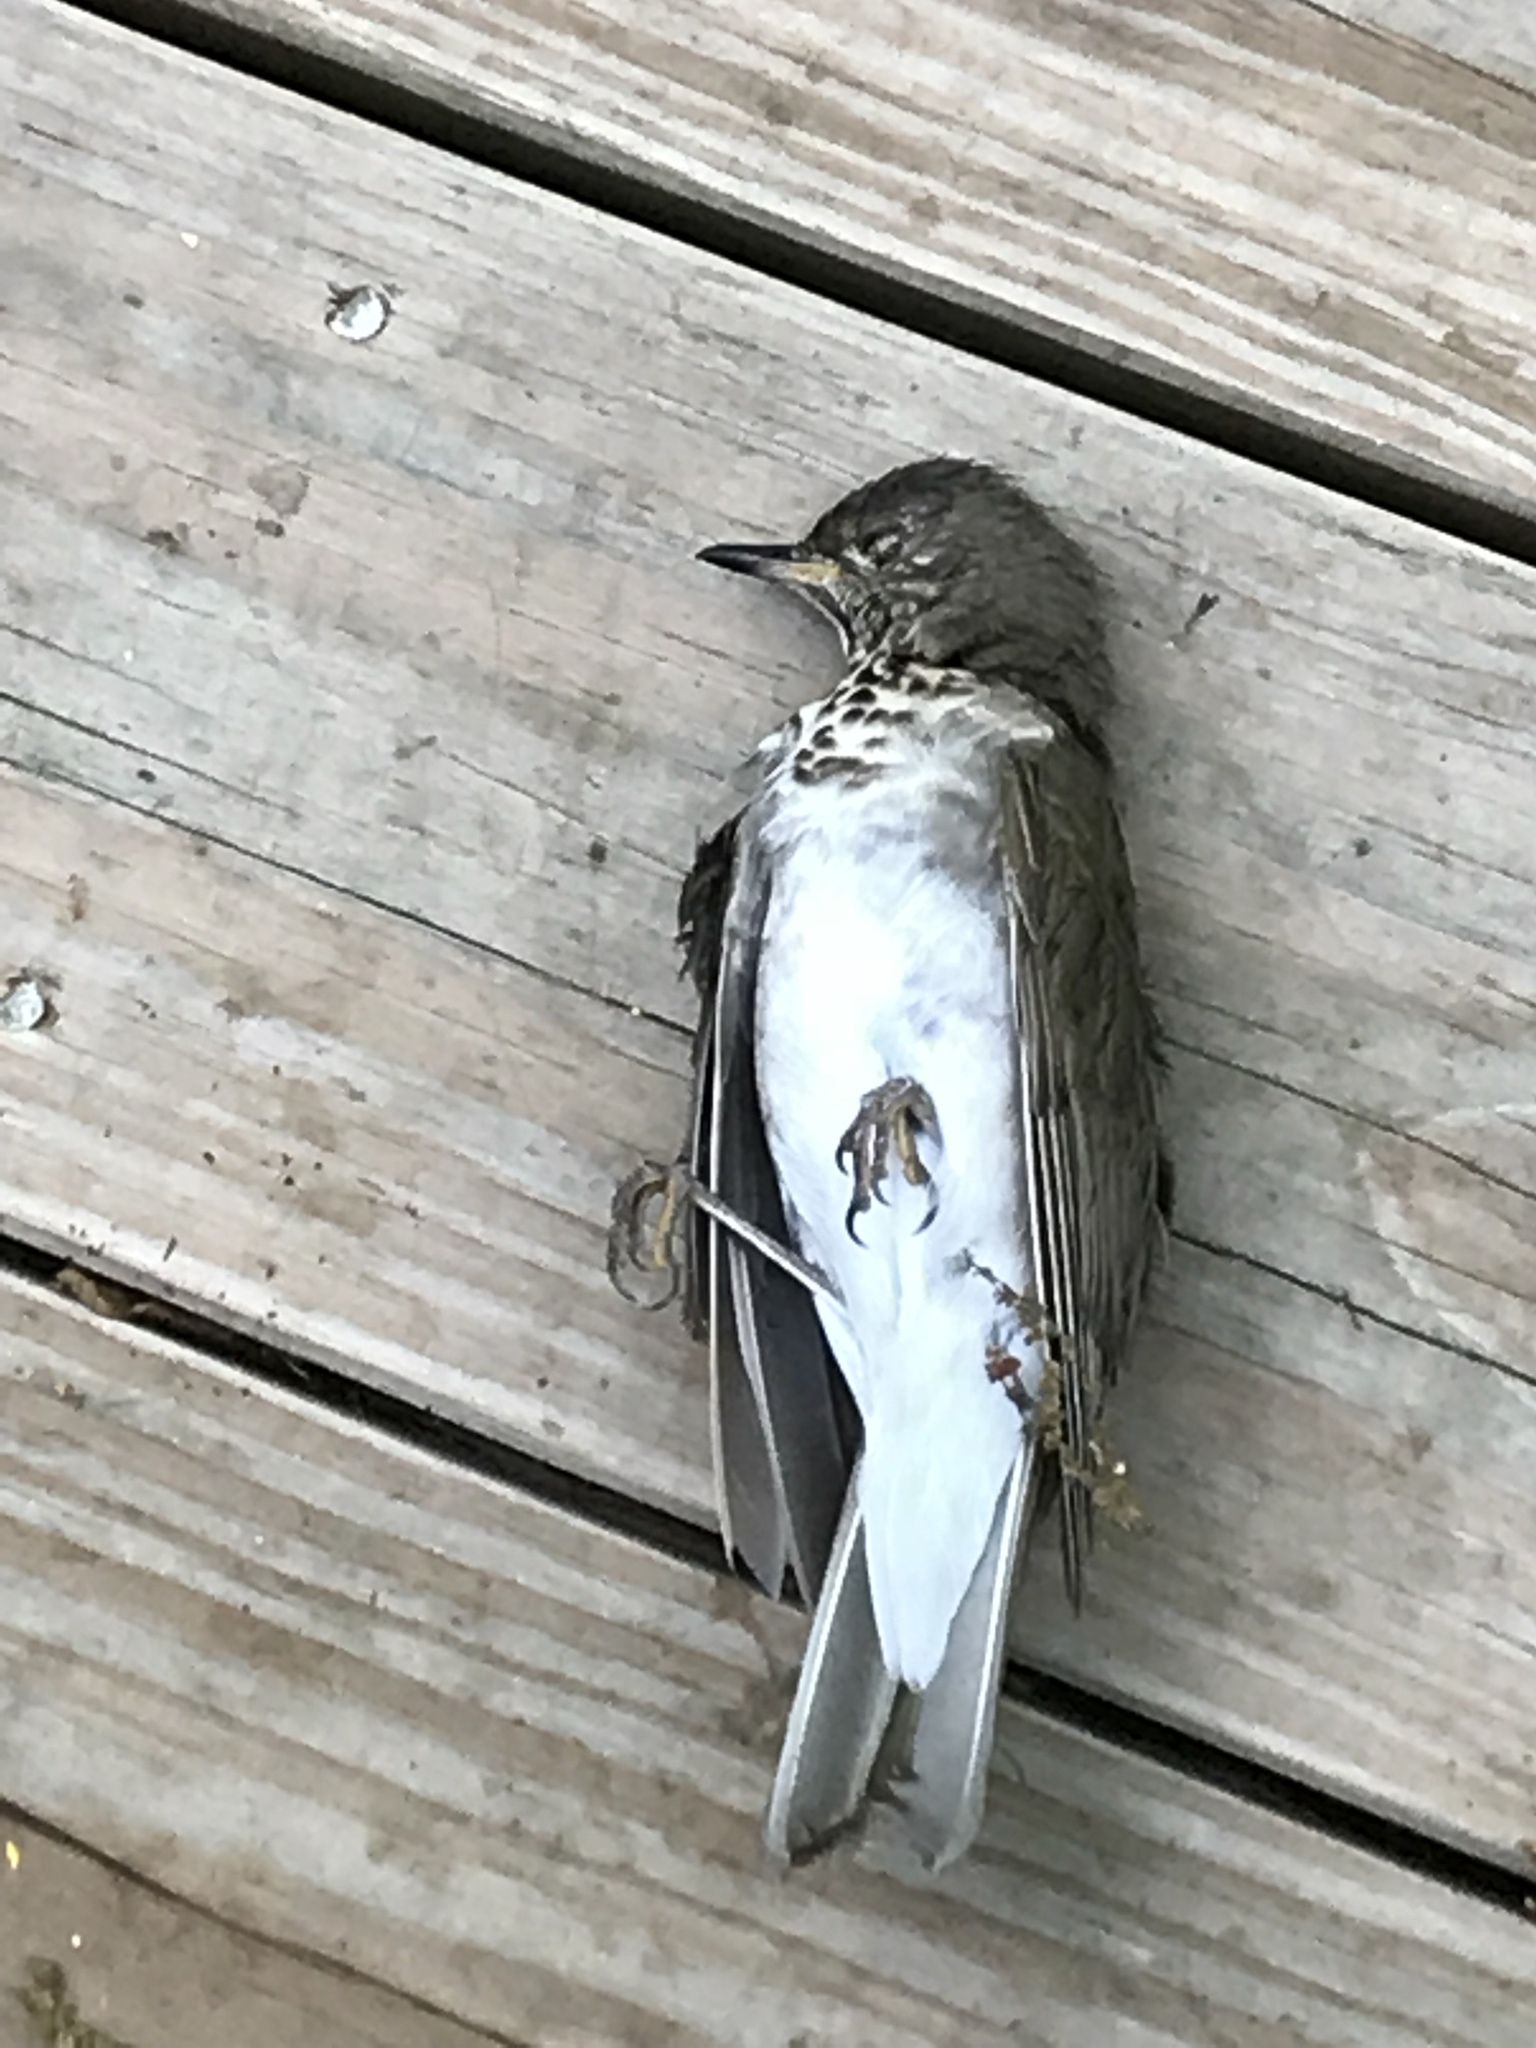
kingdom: Animalia
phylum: Chordata
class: Aves
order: Passeriformes
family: Turdidae
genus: Catharus
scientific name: Catharus minimus
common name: Grey-cheeked thrush
